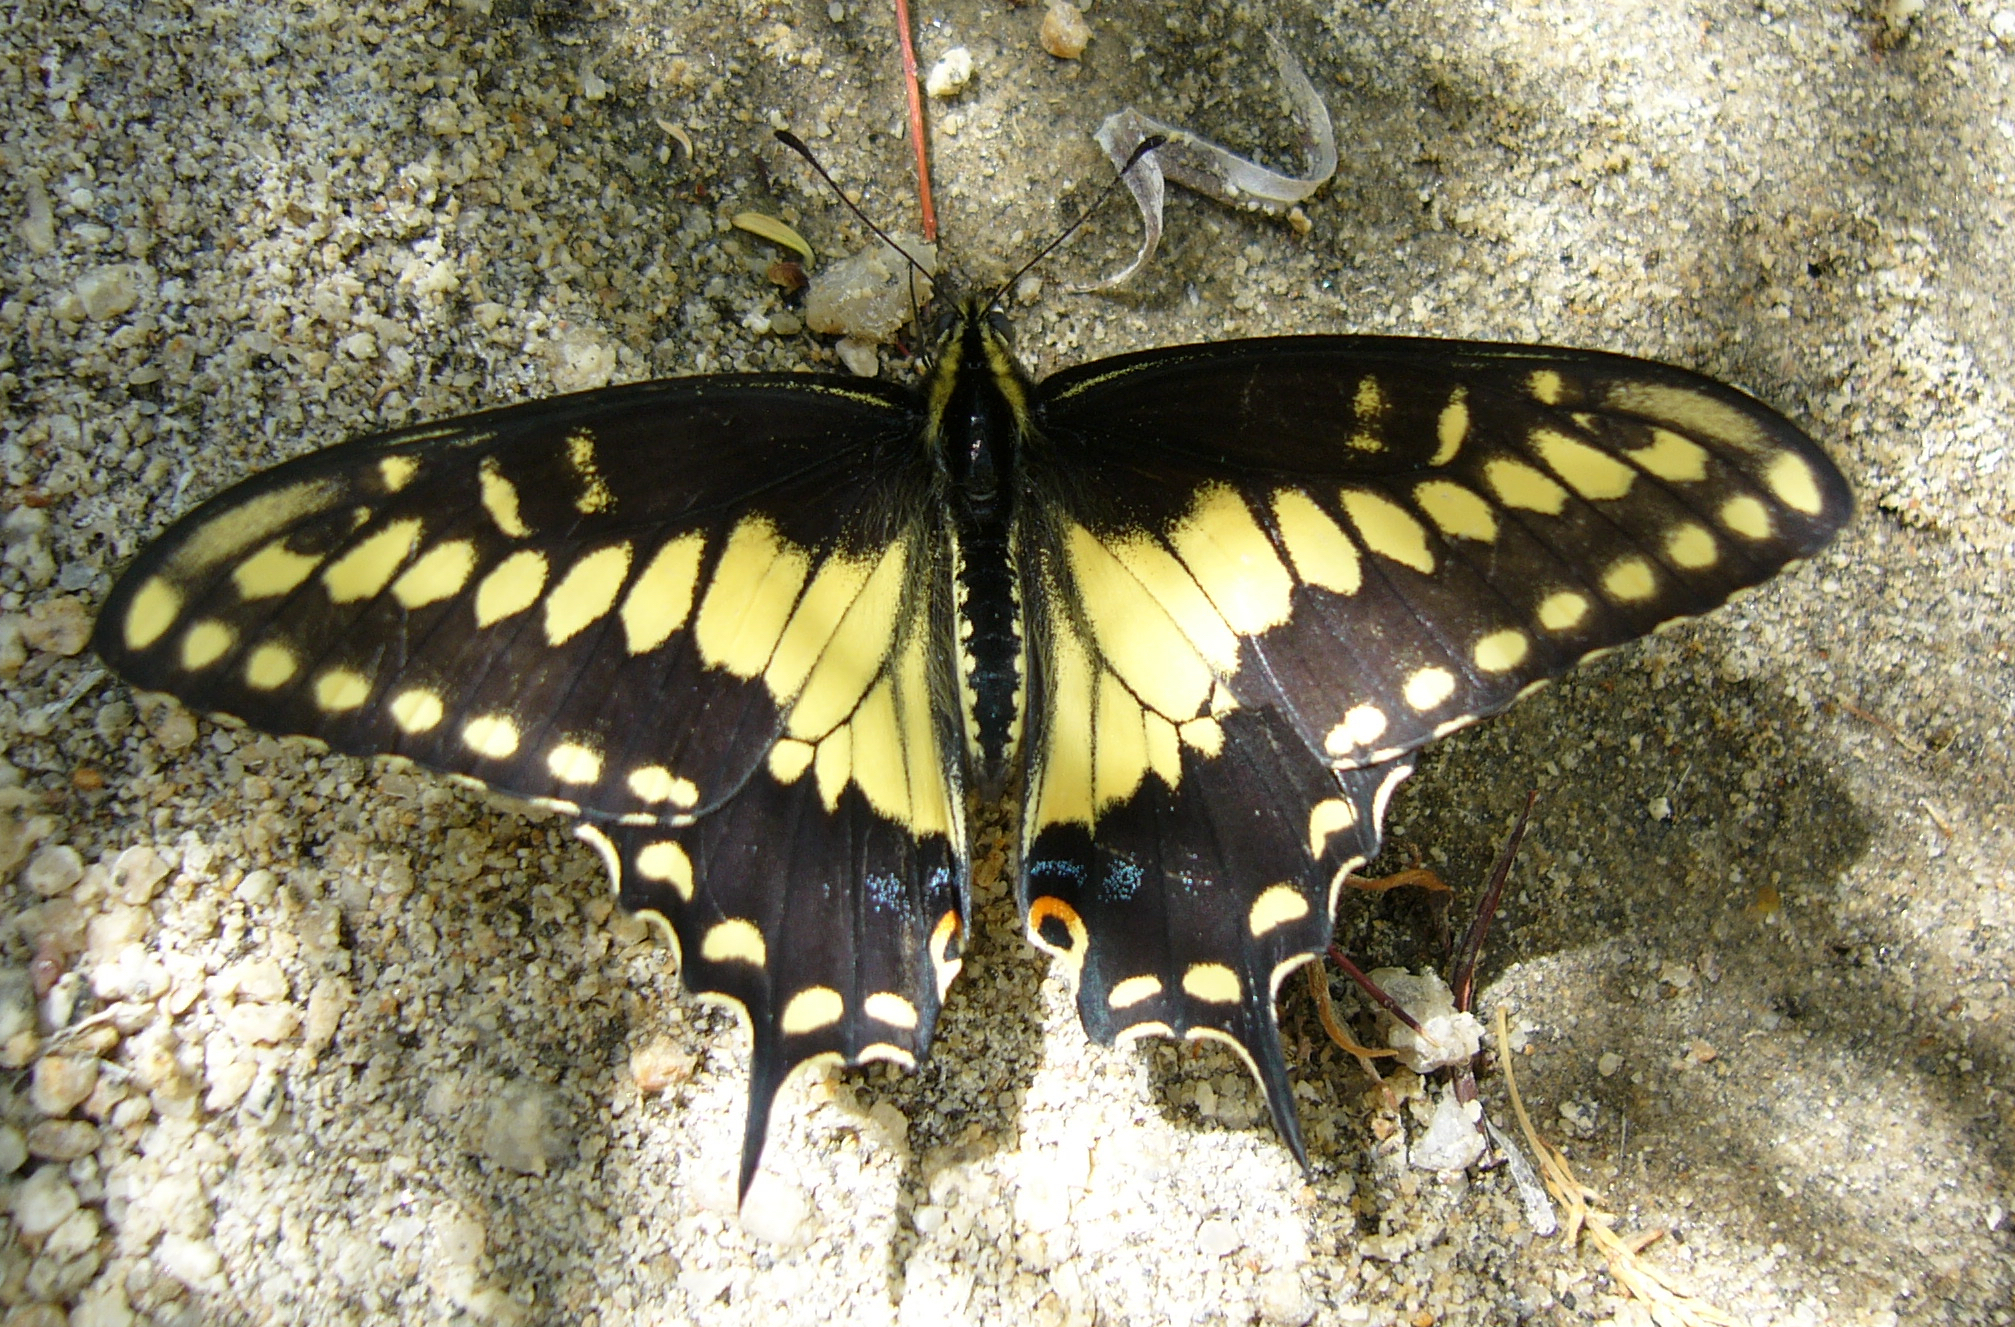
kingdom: Animalia
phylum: Arthropoda
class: Insecta
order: Lepidoptera
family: Papilionidae
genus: Papilio
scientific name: Papilio polyxenes
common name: Black swallowtail
